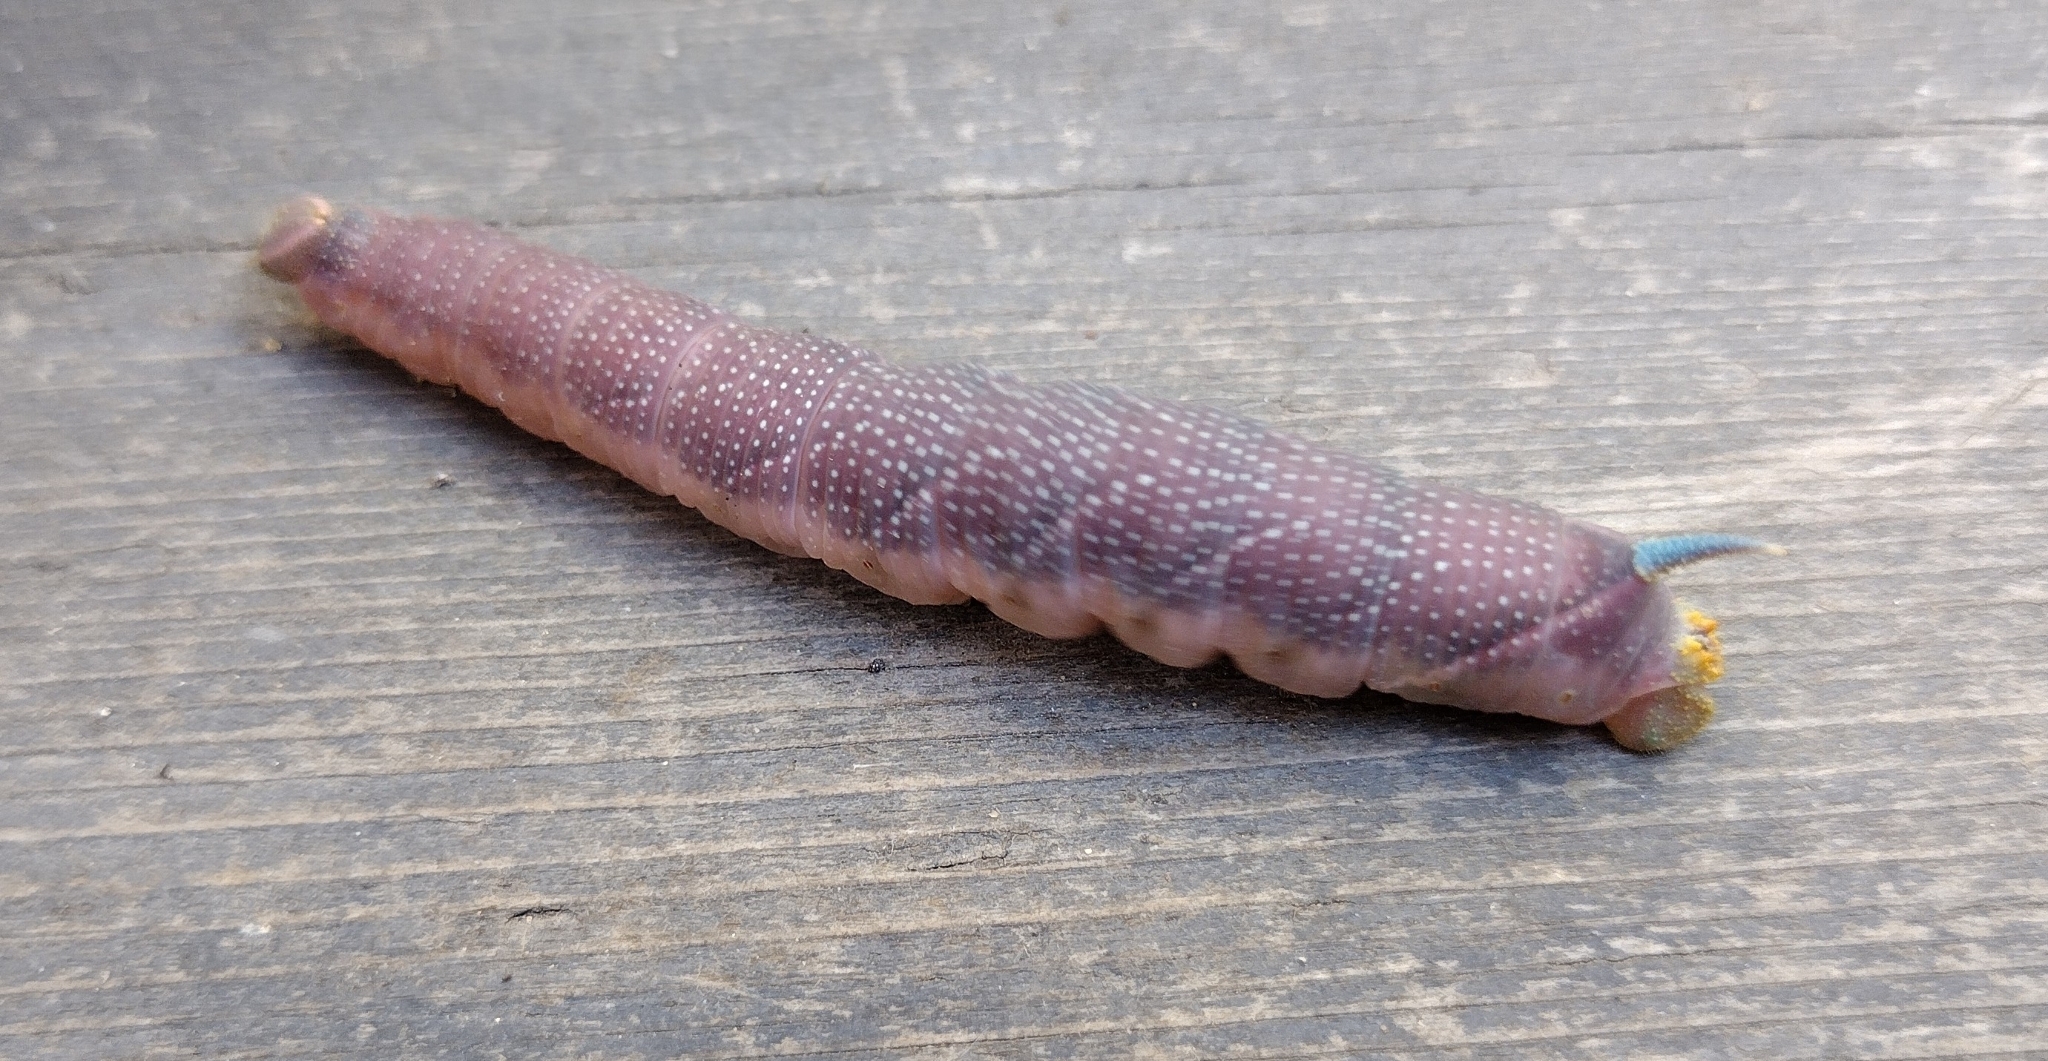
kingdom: Animalia
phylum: Arthropoda
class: Insecta
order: Lepidoptera
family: Sphingidae
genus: Mimas
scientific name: Mimas tiliae
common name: Lime hawk-moth
